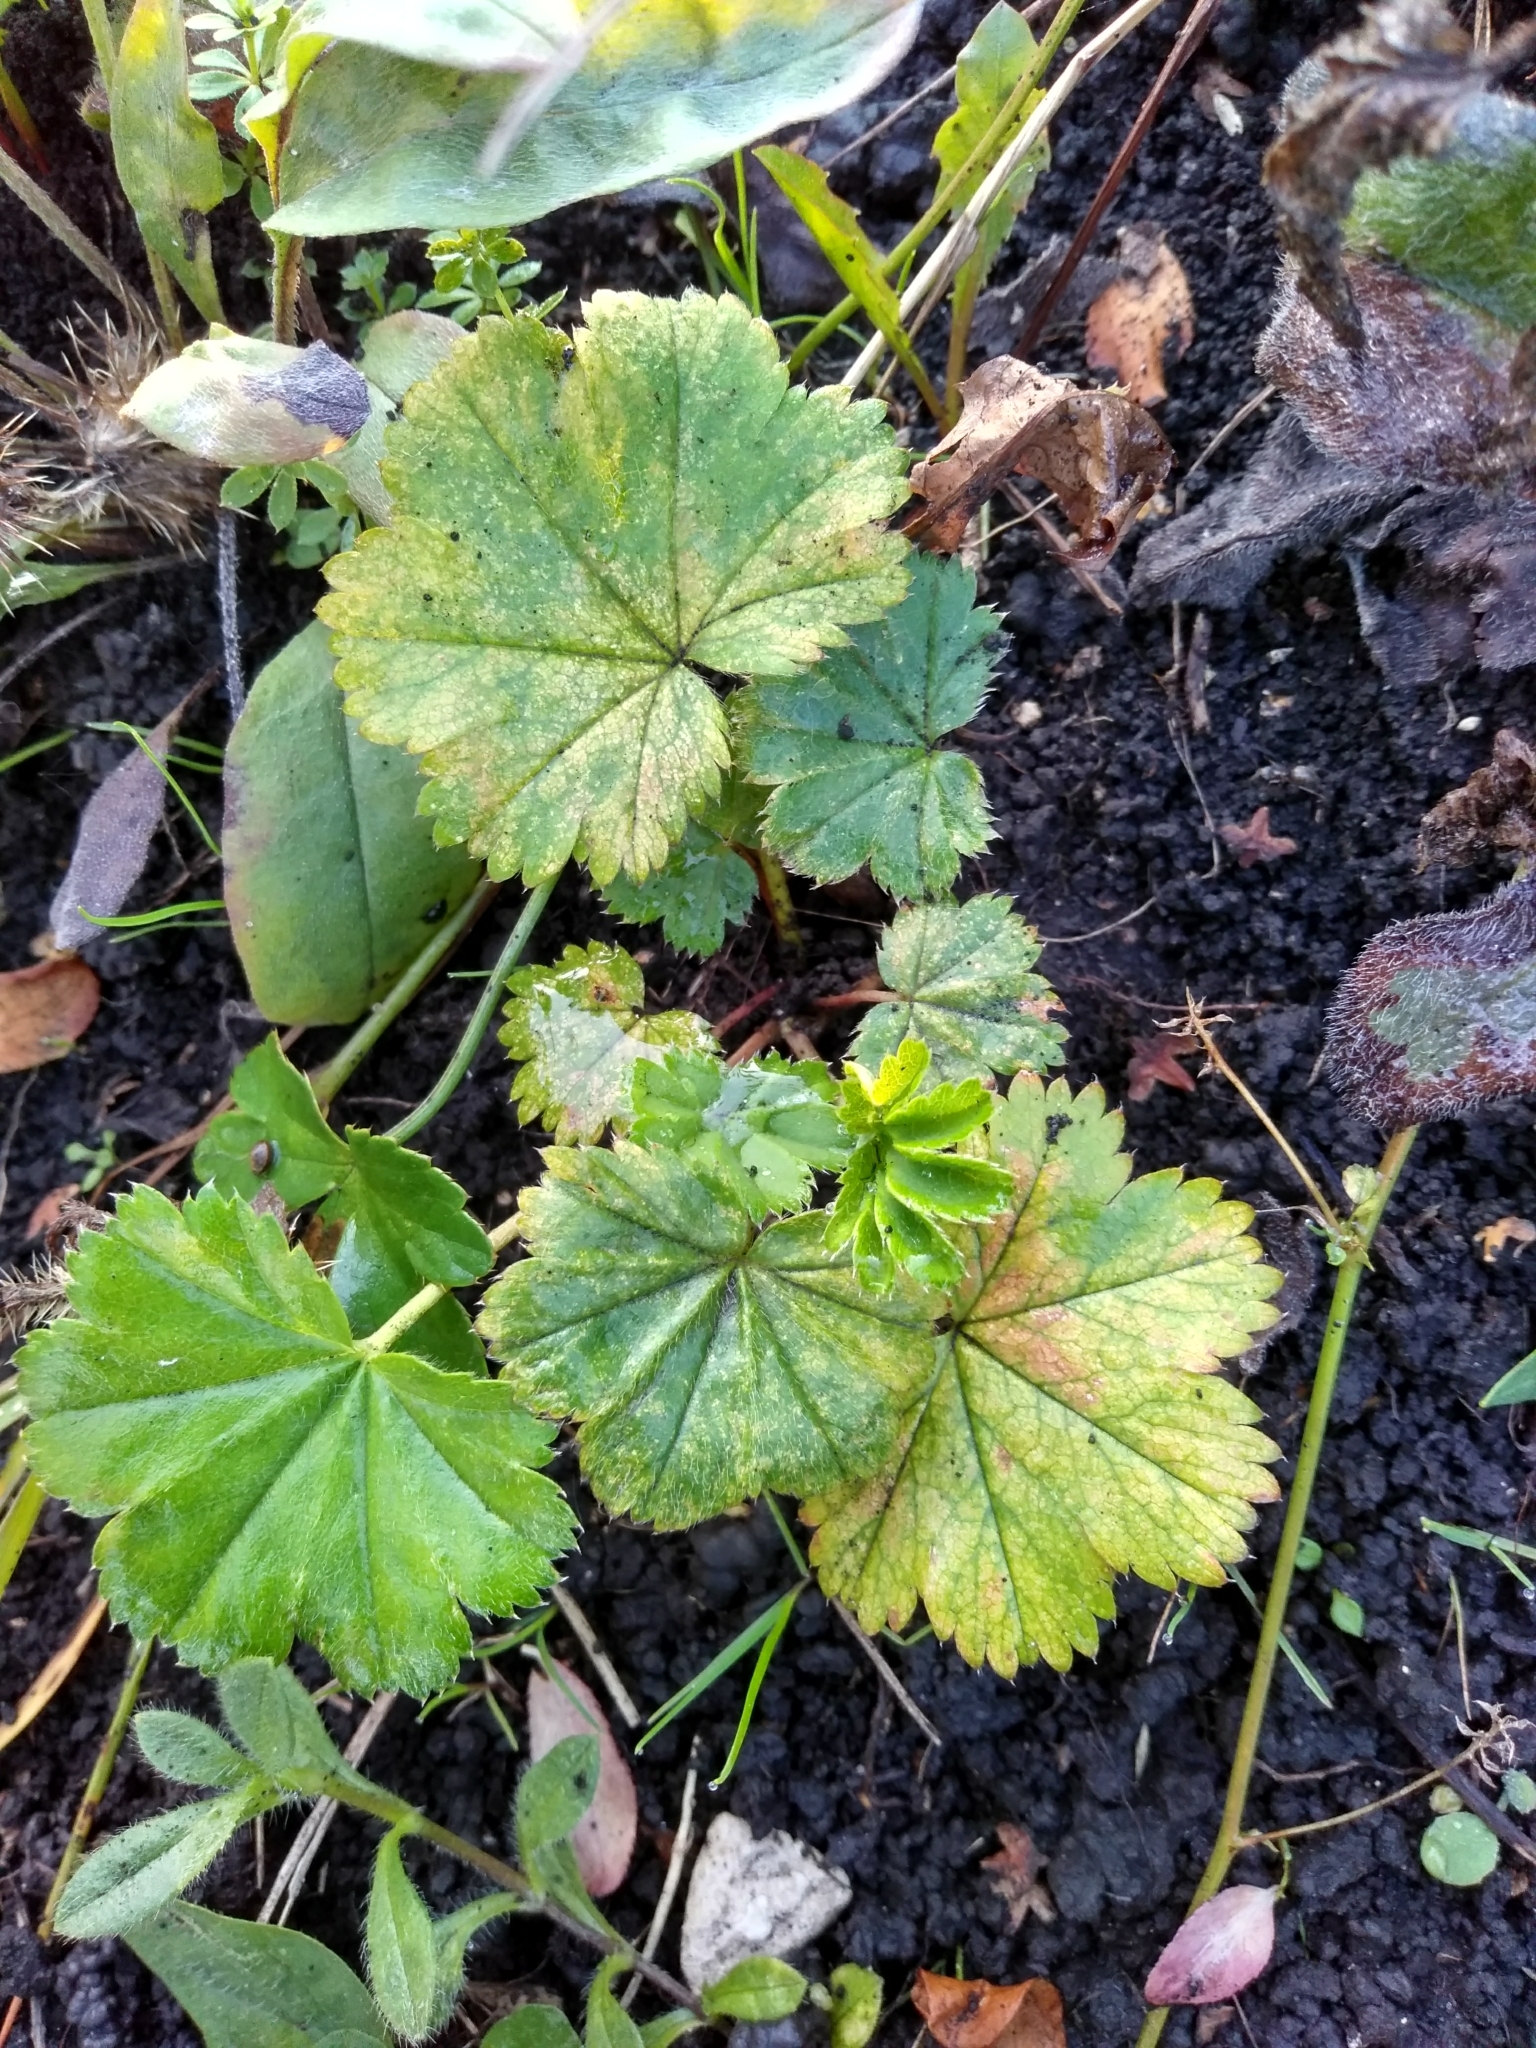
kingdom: Plantae
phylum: Tracheophyta
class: Magnoliopsida
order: Rosales
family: Rosaceae
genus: Alchemilla
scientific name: Alchemilla
